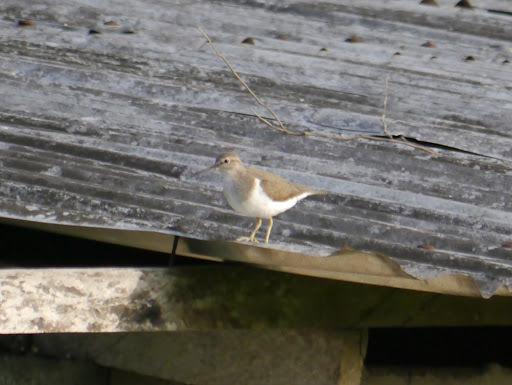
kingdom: Animalia
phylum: Chordata
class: Aves
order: Charadriiformes
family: Scolopacidae
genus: Actitis
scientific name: Actitis hypoleucos
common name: Common sandpiper
